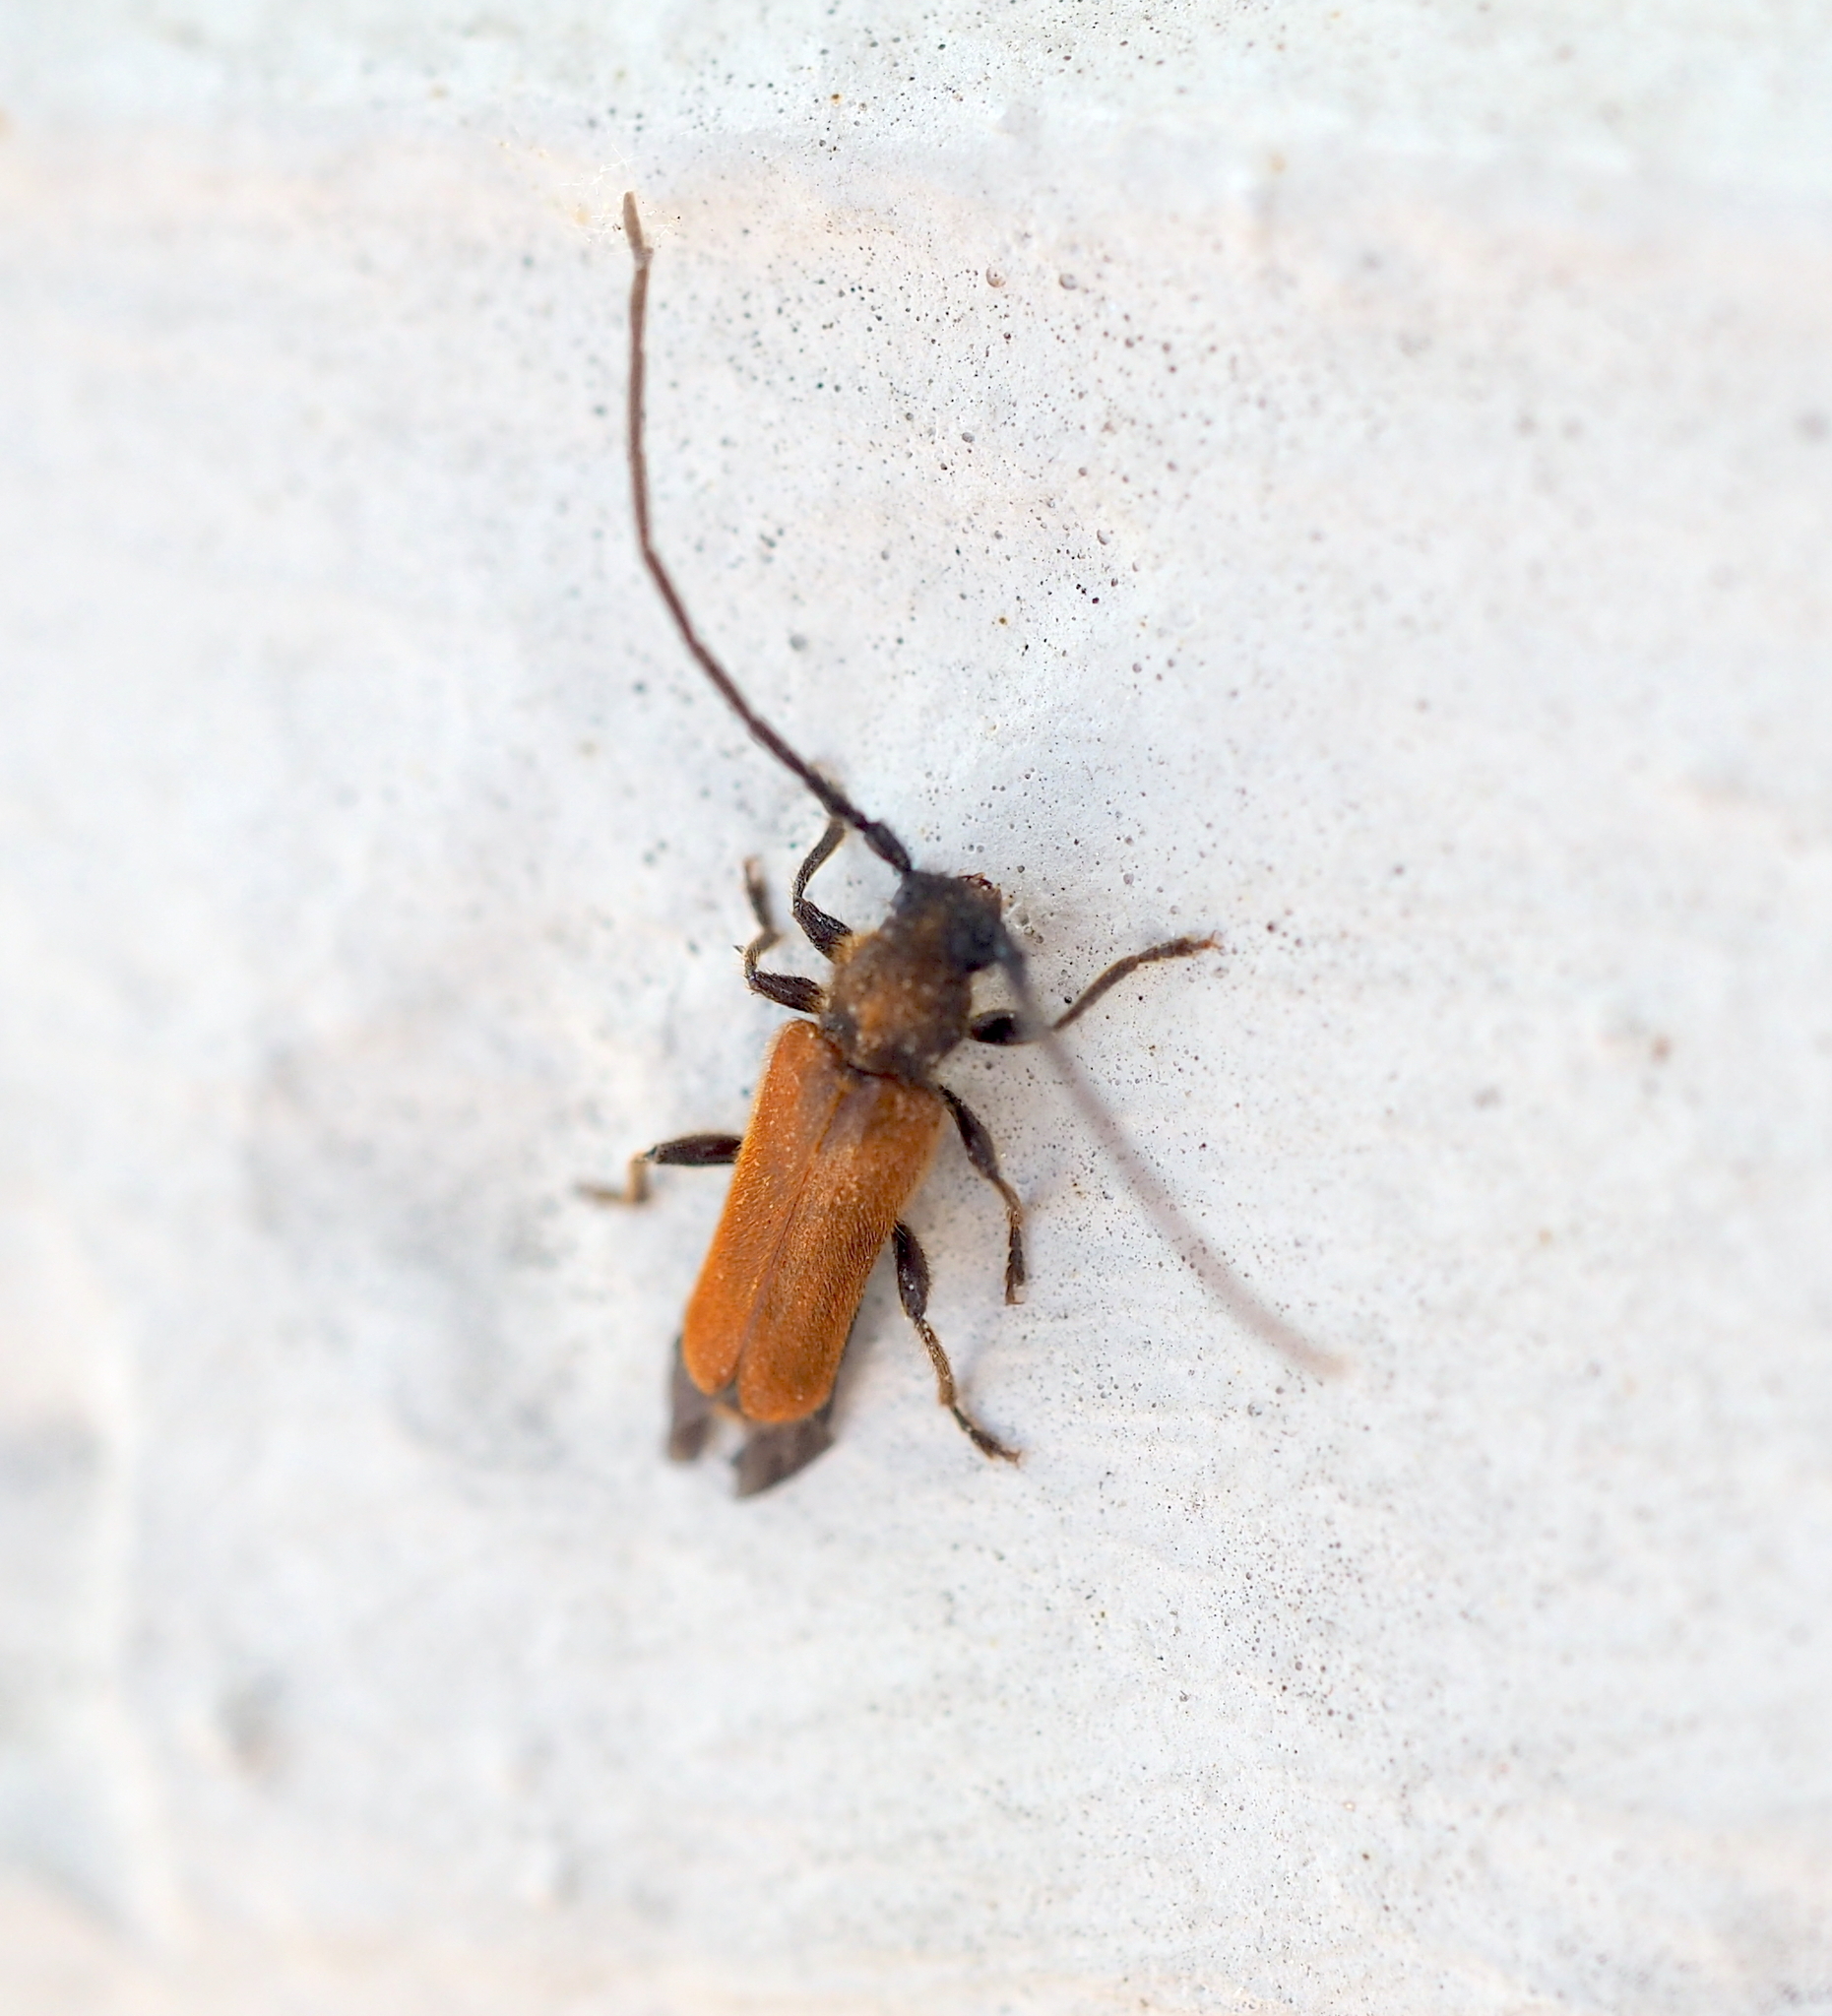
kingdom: Animalia
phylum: Arthropoda
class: Insecta
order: Coleoptera
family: Cerambycidae
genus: Anisarthron
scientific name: Anisarthron barbipes
